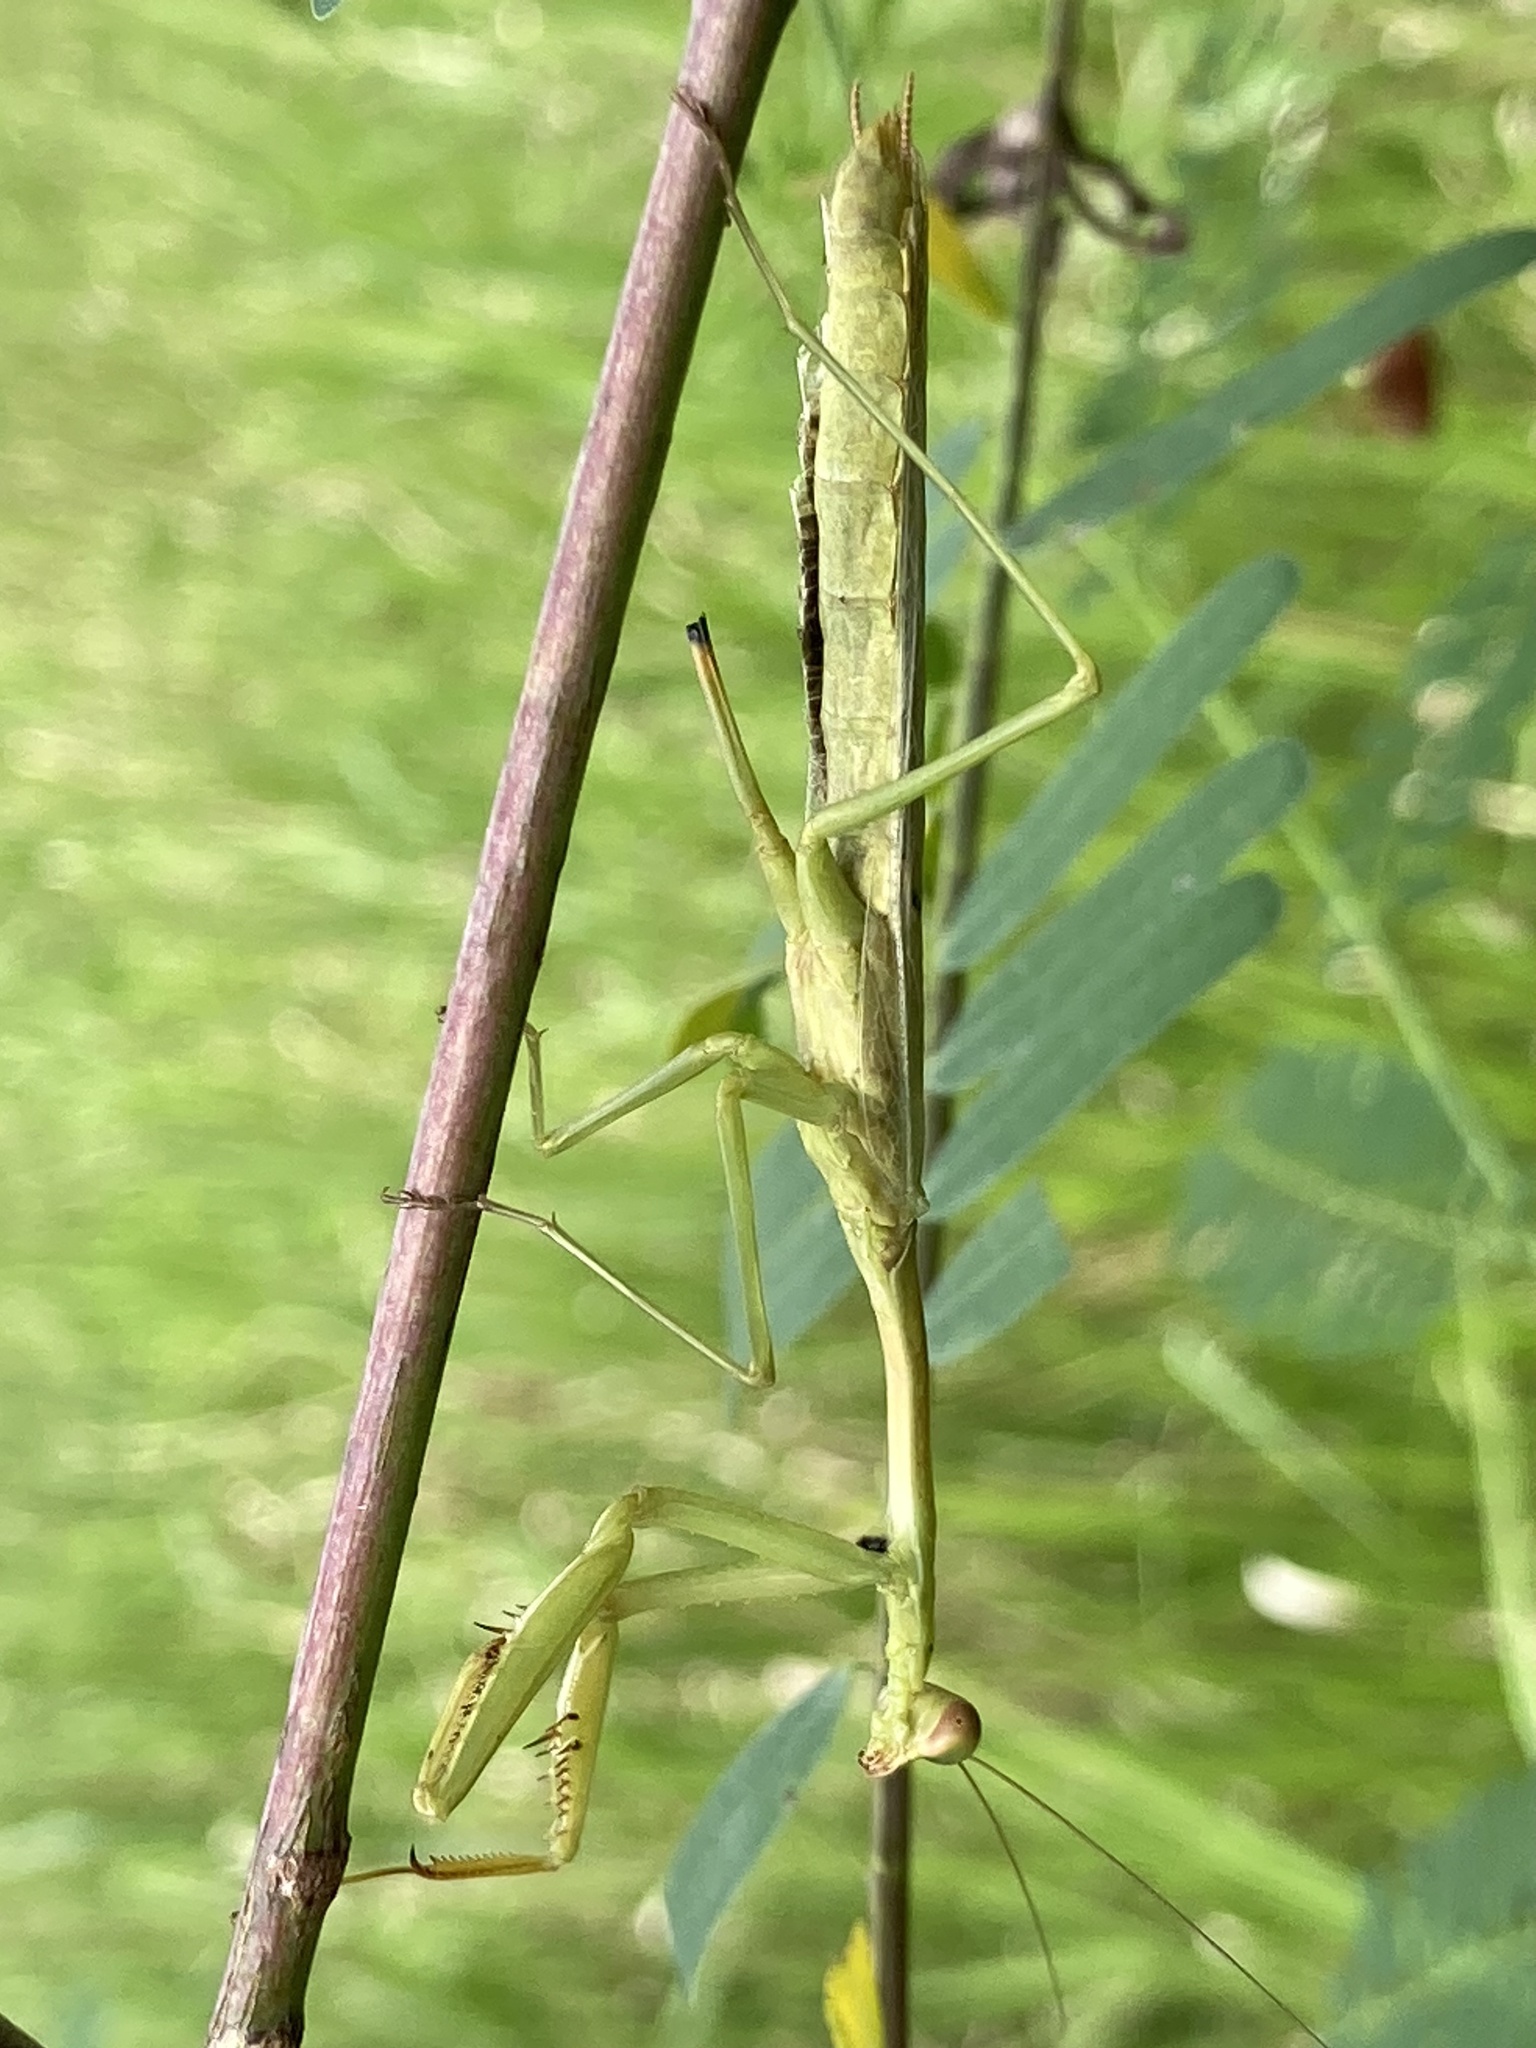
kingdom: Animalia
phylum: Arthropoda
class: Insecta
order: Mantodea
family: Mantidae
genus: Stagmomantis
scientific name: Stagmomantis carolina
